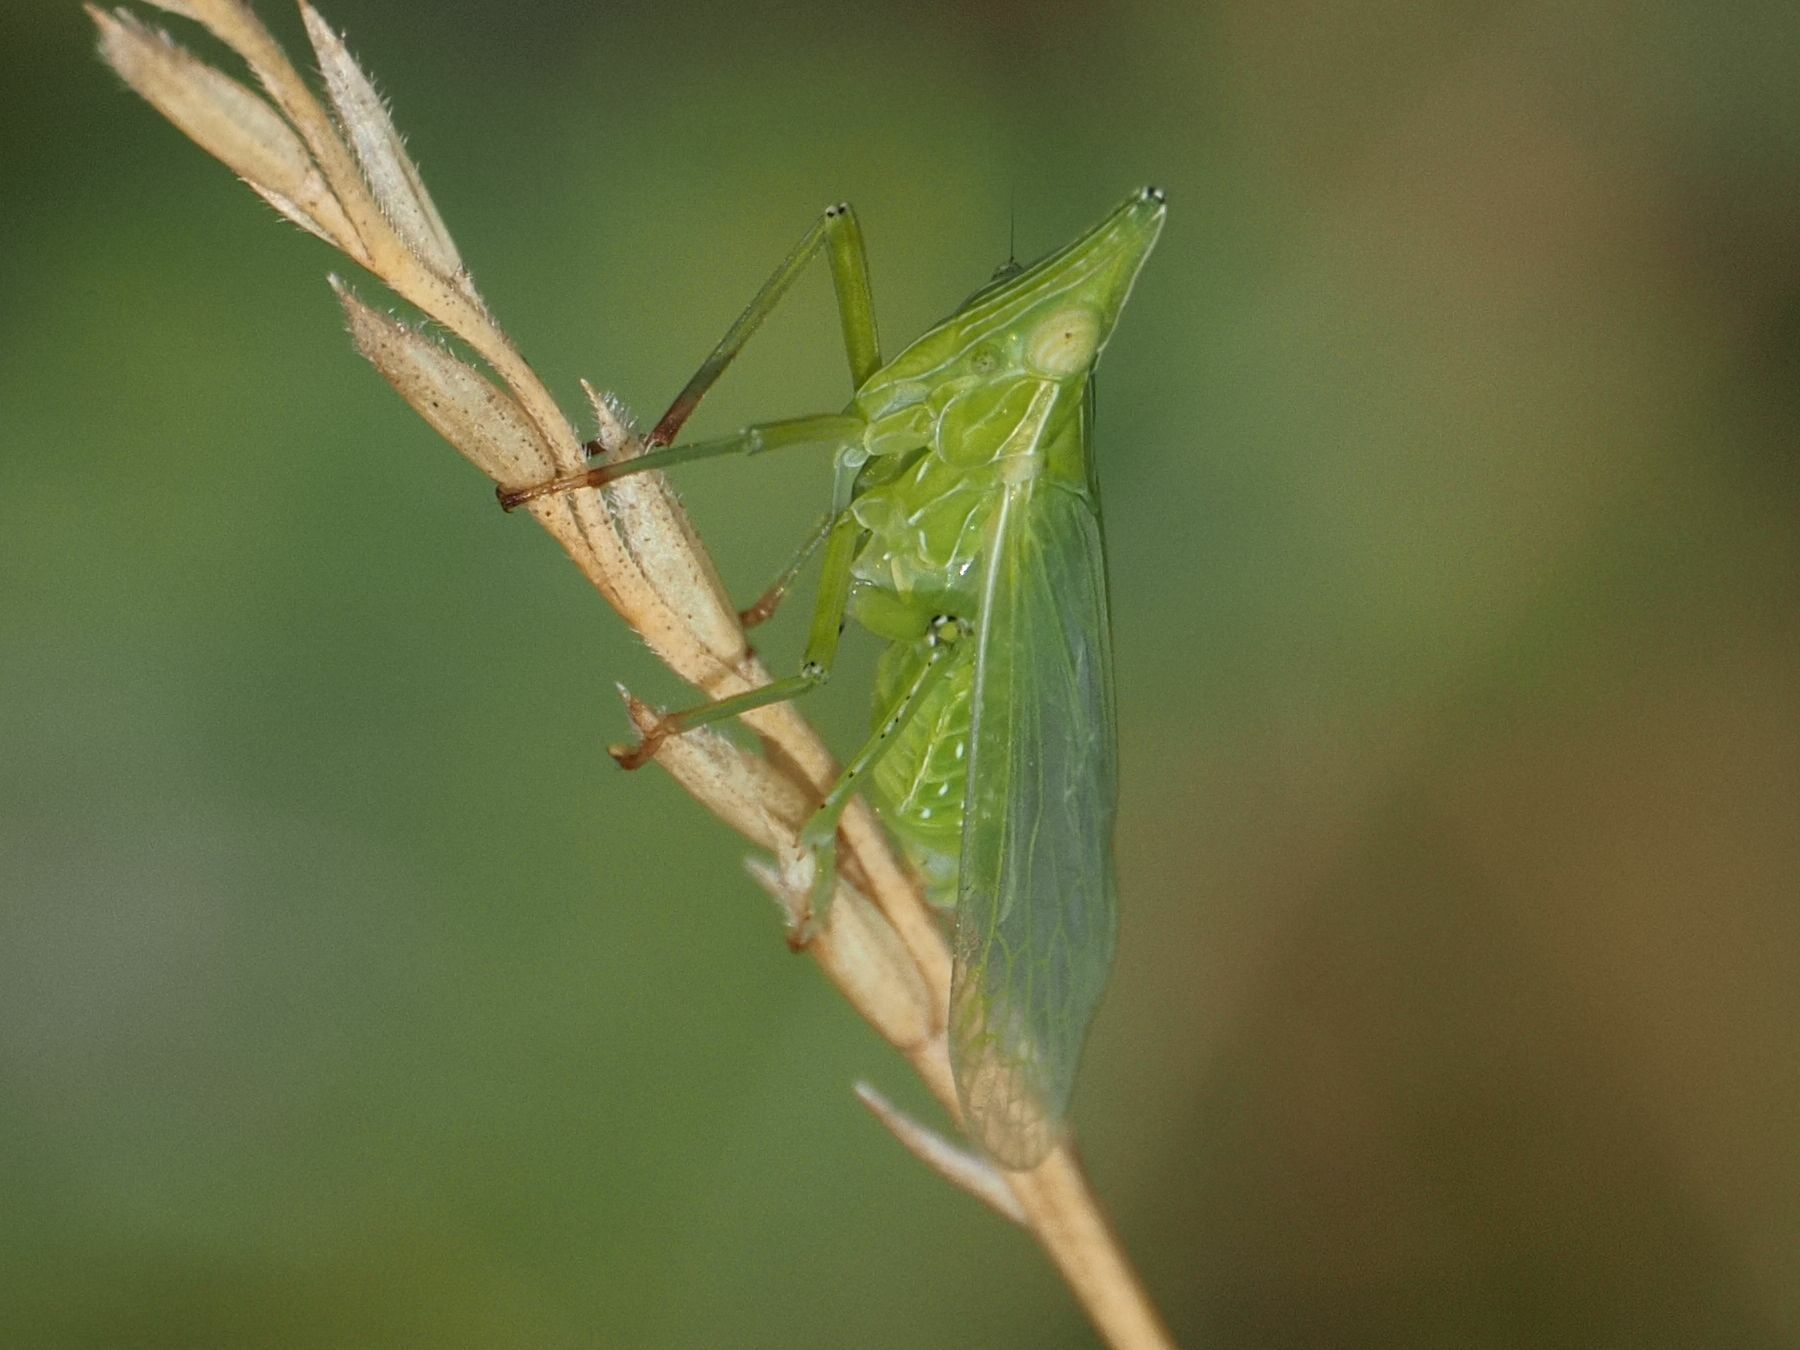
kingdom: Animalia
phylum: Arthropoda
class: Insecta
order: Hemiptera
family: Dictyopharidae
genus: Dictyophara
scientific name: Dictyophara europaea
